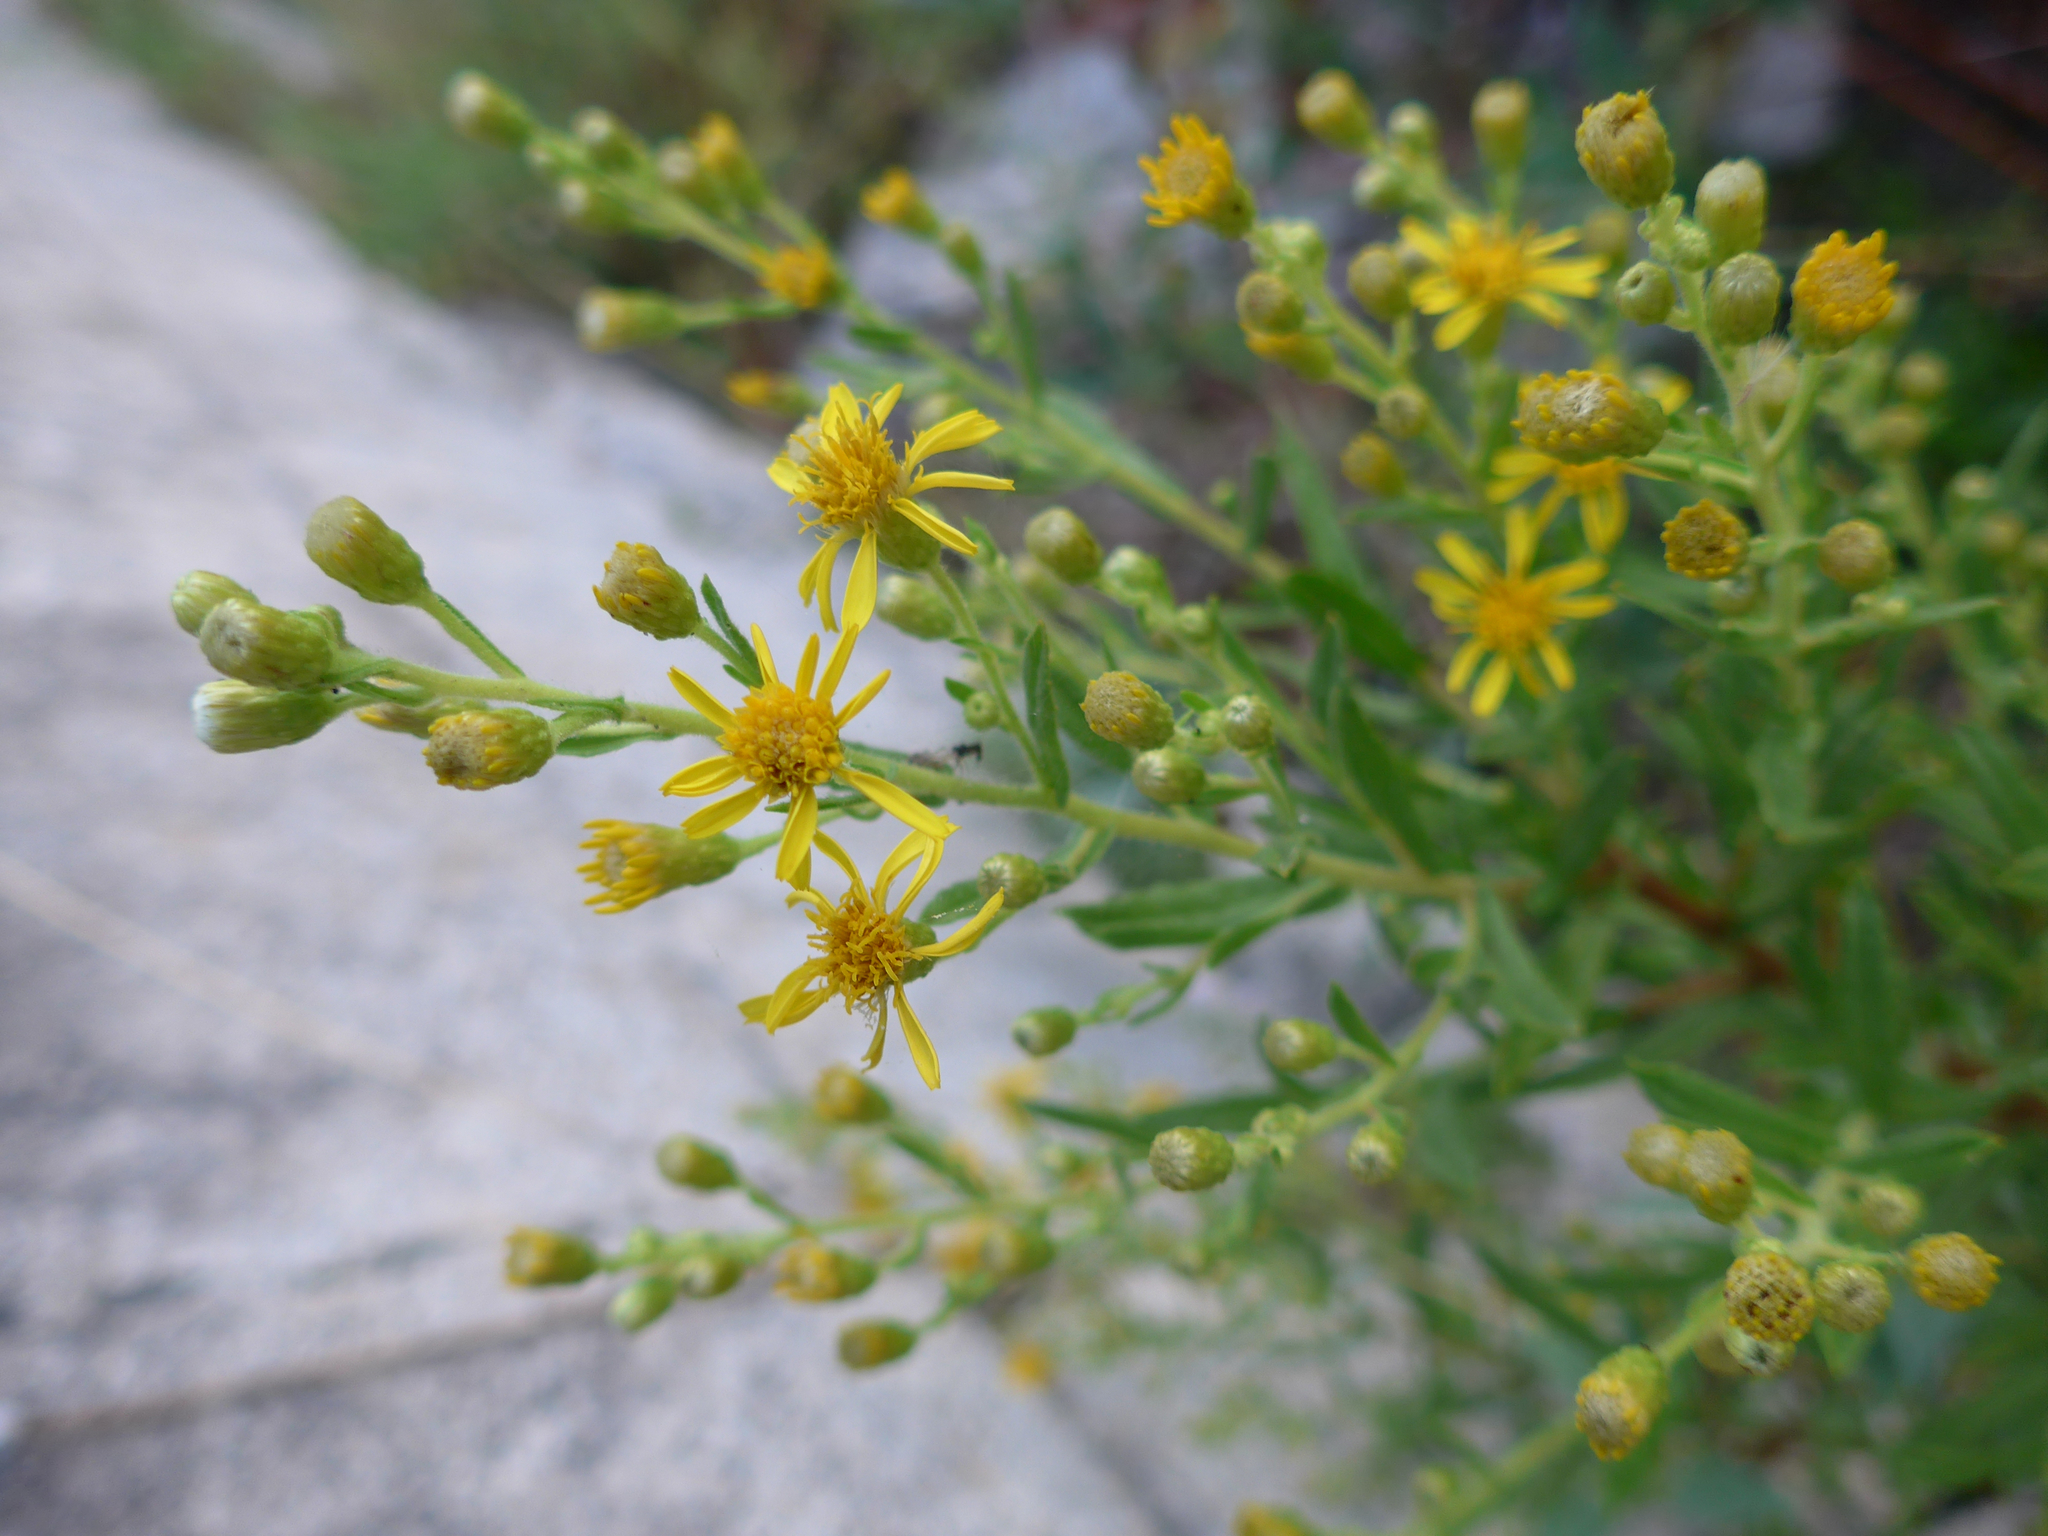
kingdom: Plantae
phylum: Tracheophyta
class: Magnoliopsida
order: Asterales
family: Asteraceae
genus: Dittrichia
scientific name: Dittrichia viscosa
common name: Woody fleabane
